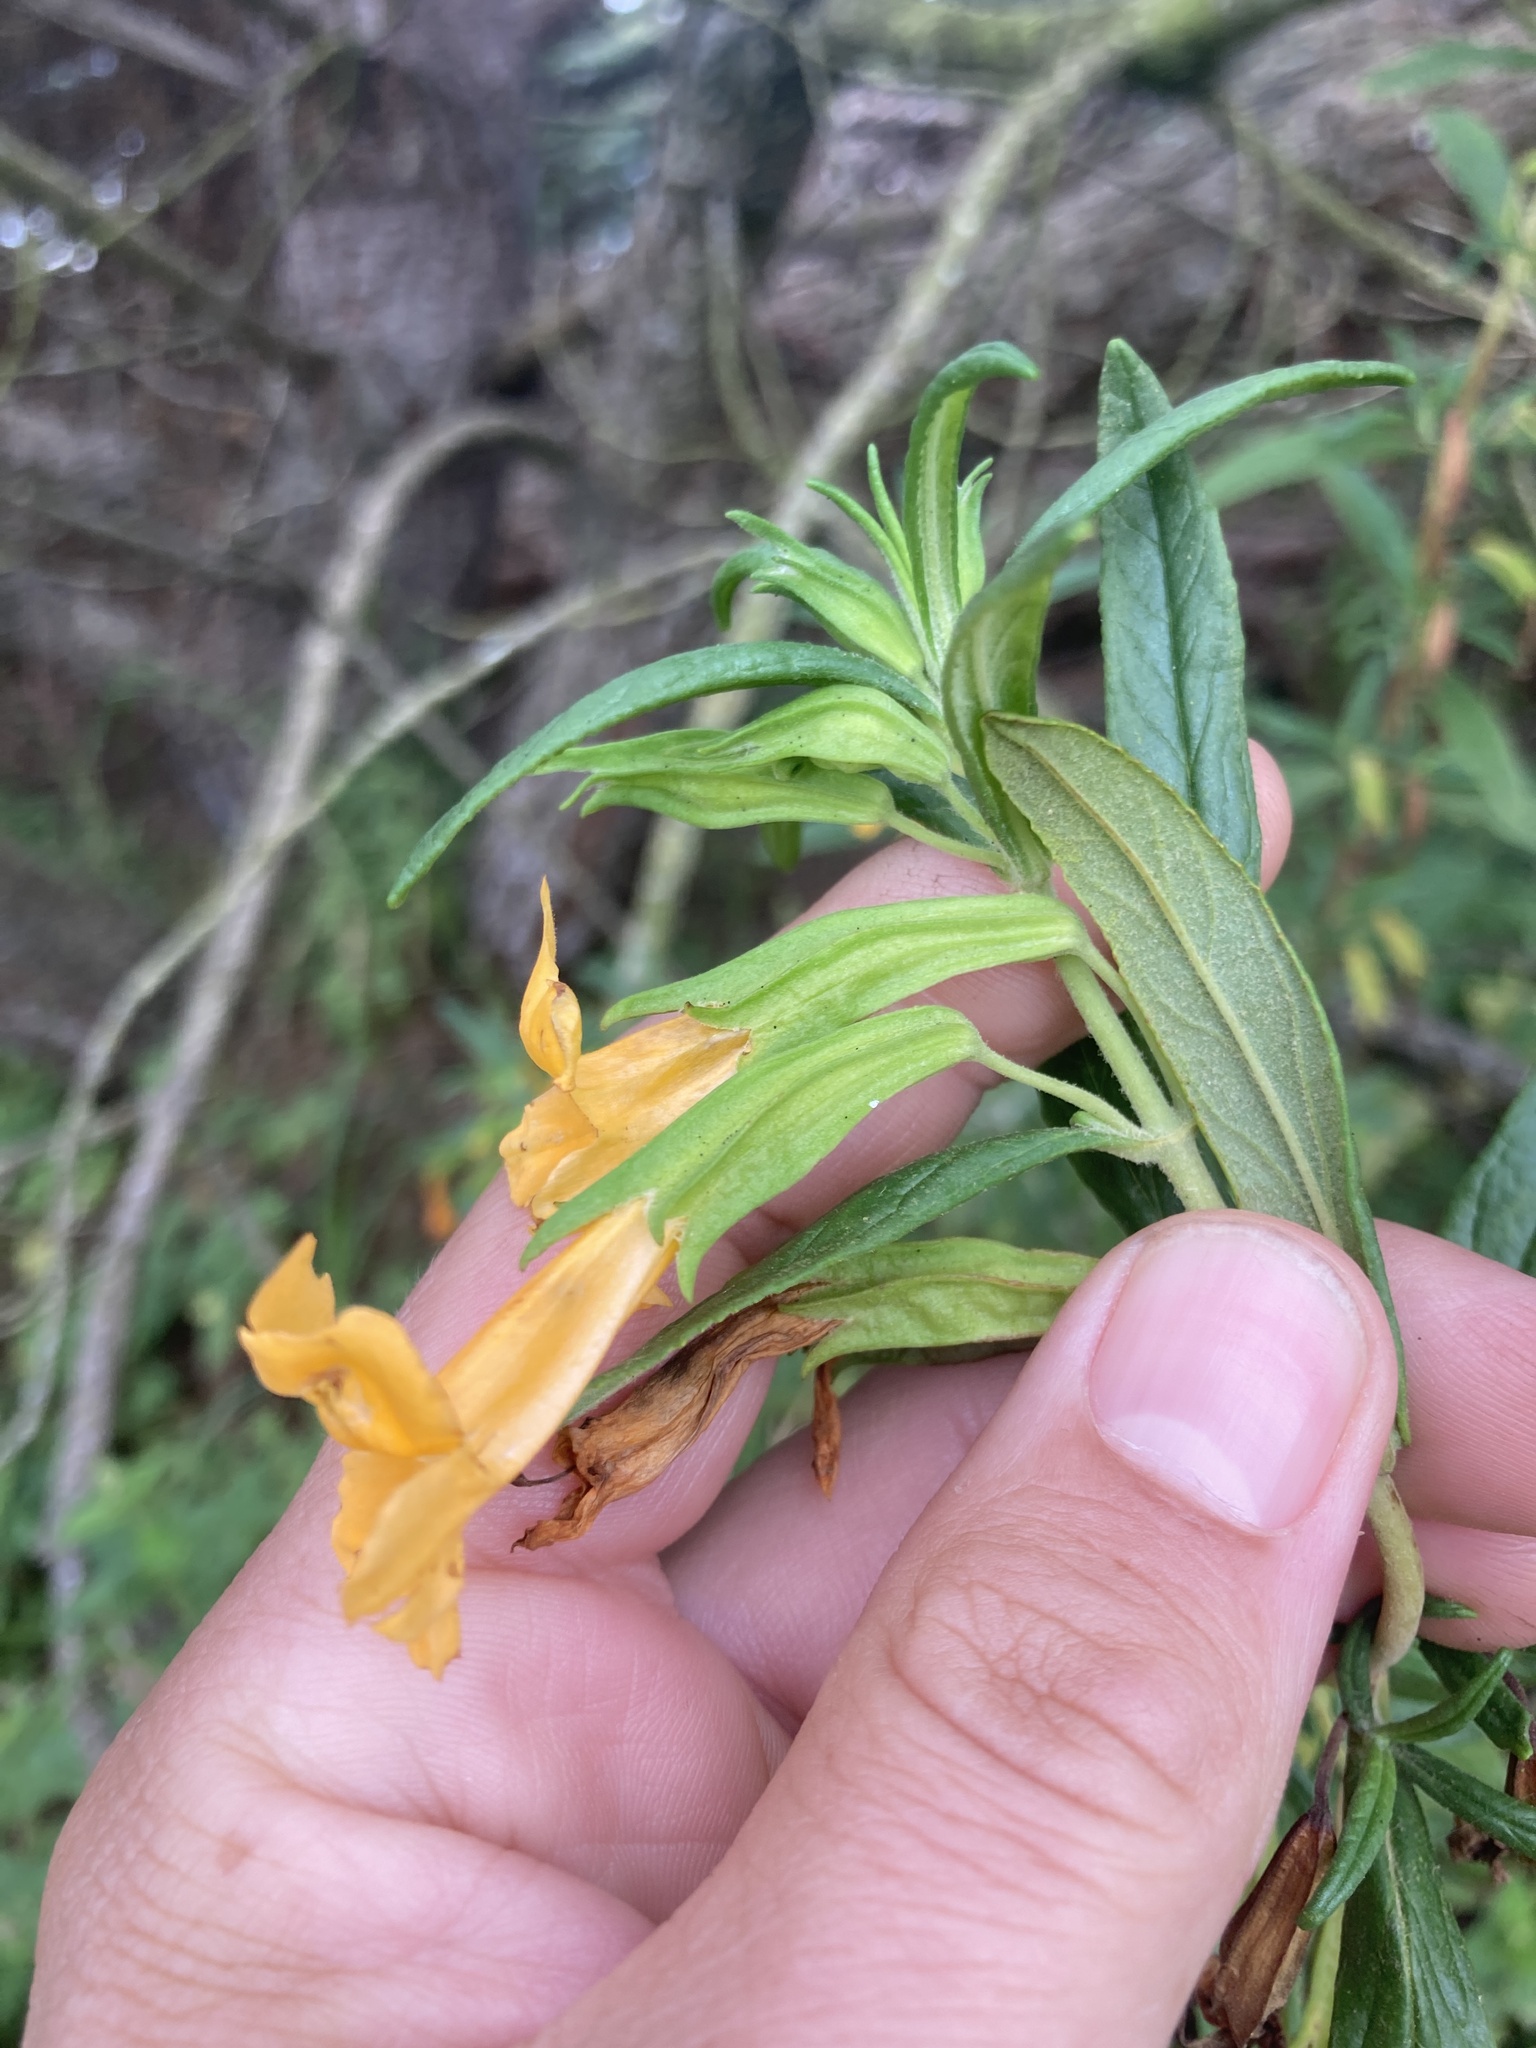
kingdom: Plantae
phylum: Tracheophyta
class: Magnoliopsida
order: Lamiales
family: Phrymaceae
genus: Diplacus
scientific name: Diplacus aurantiacus
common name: Bush monkey-flower
